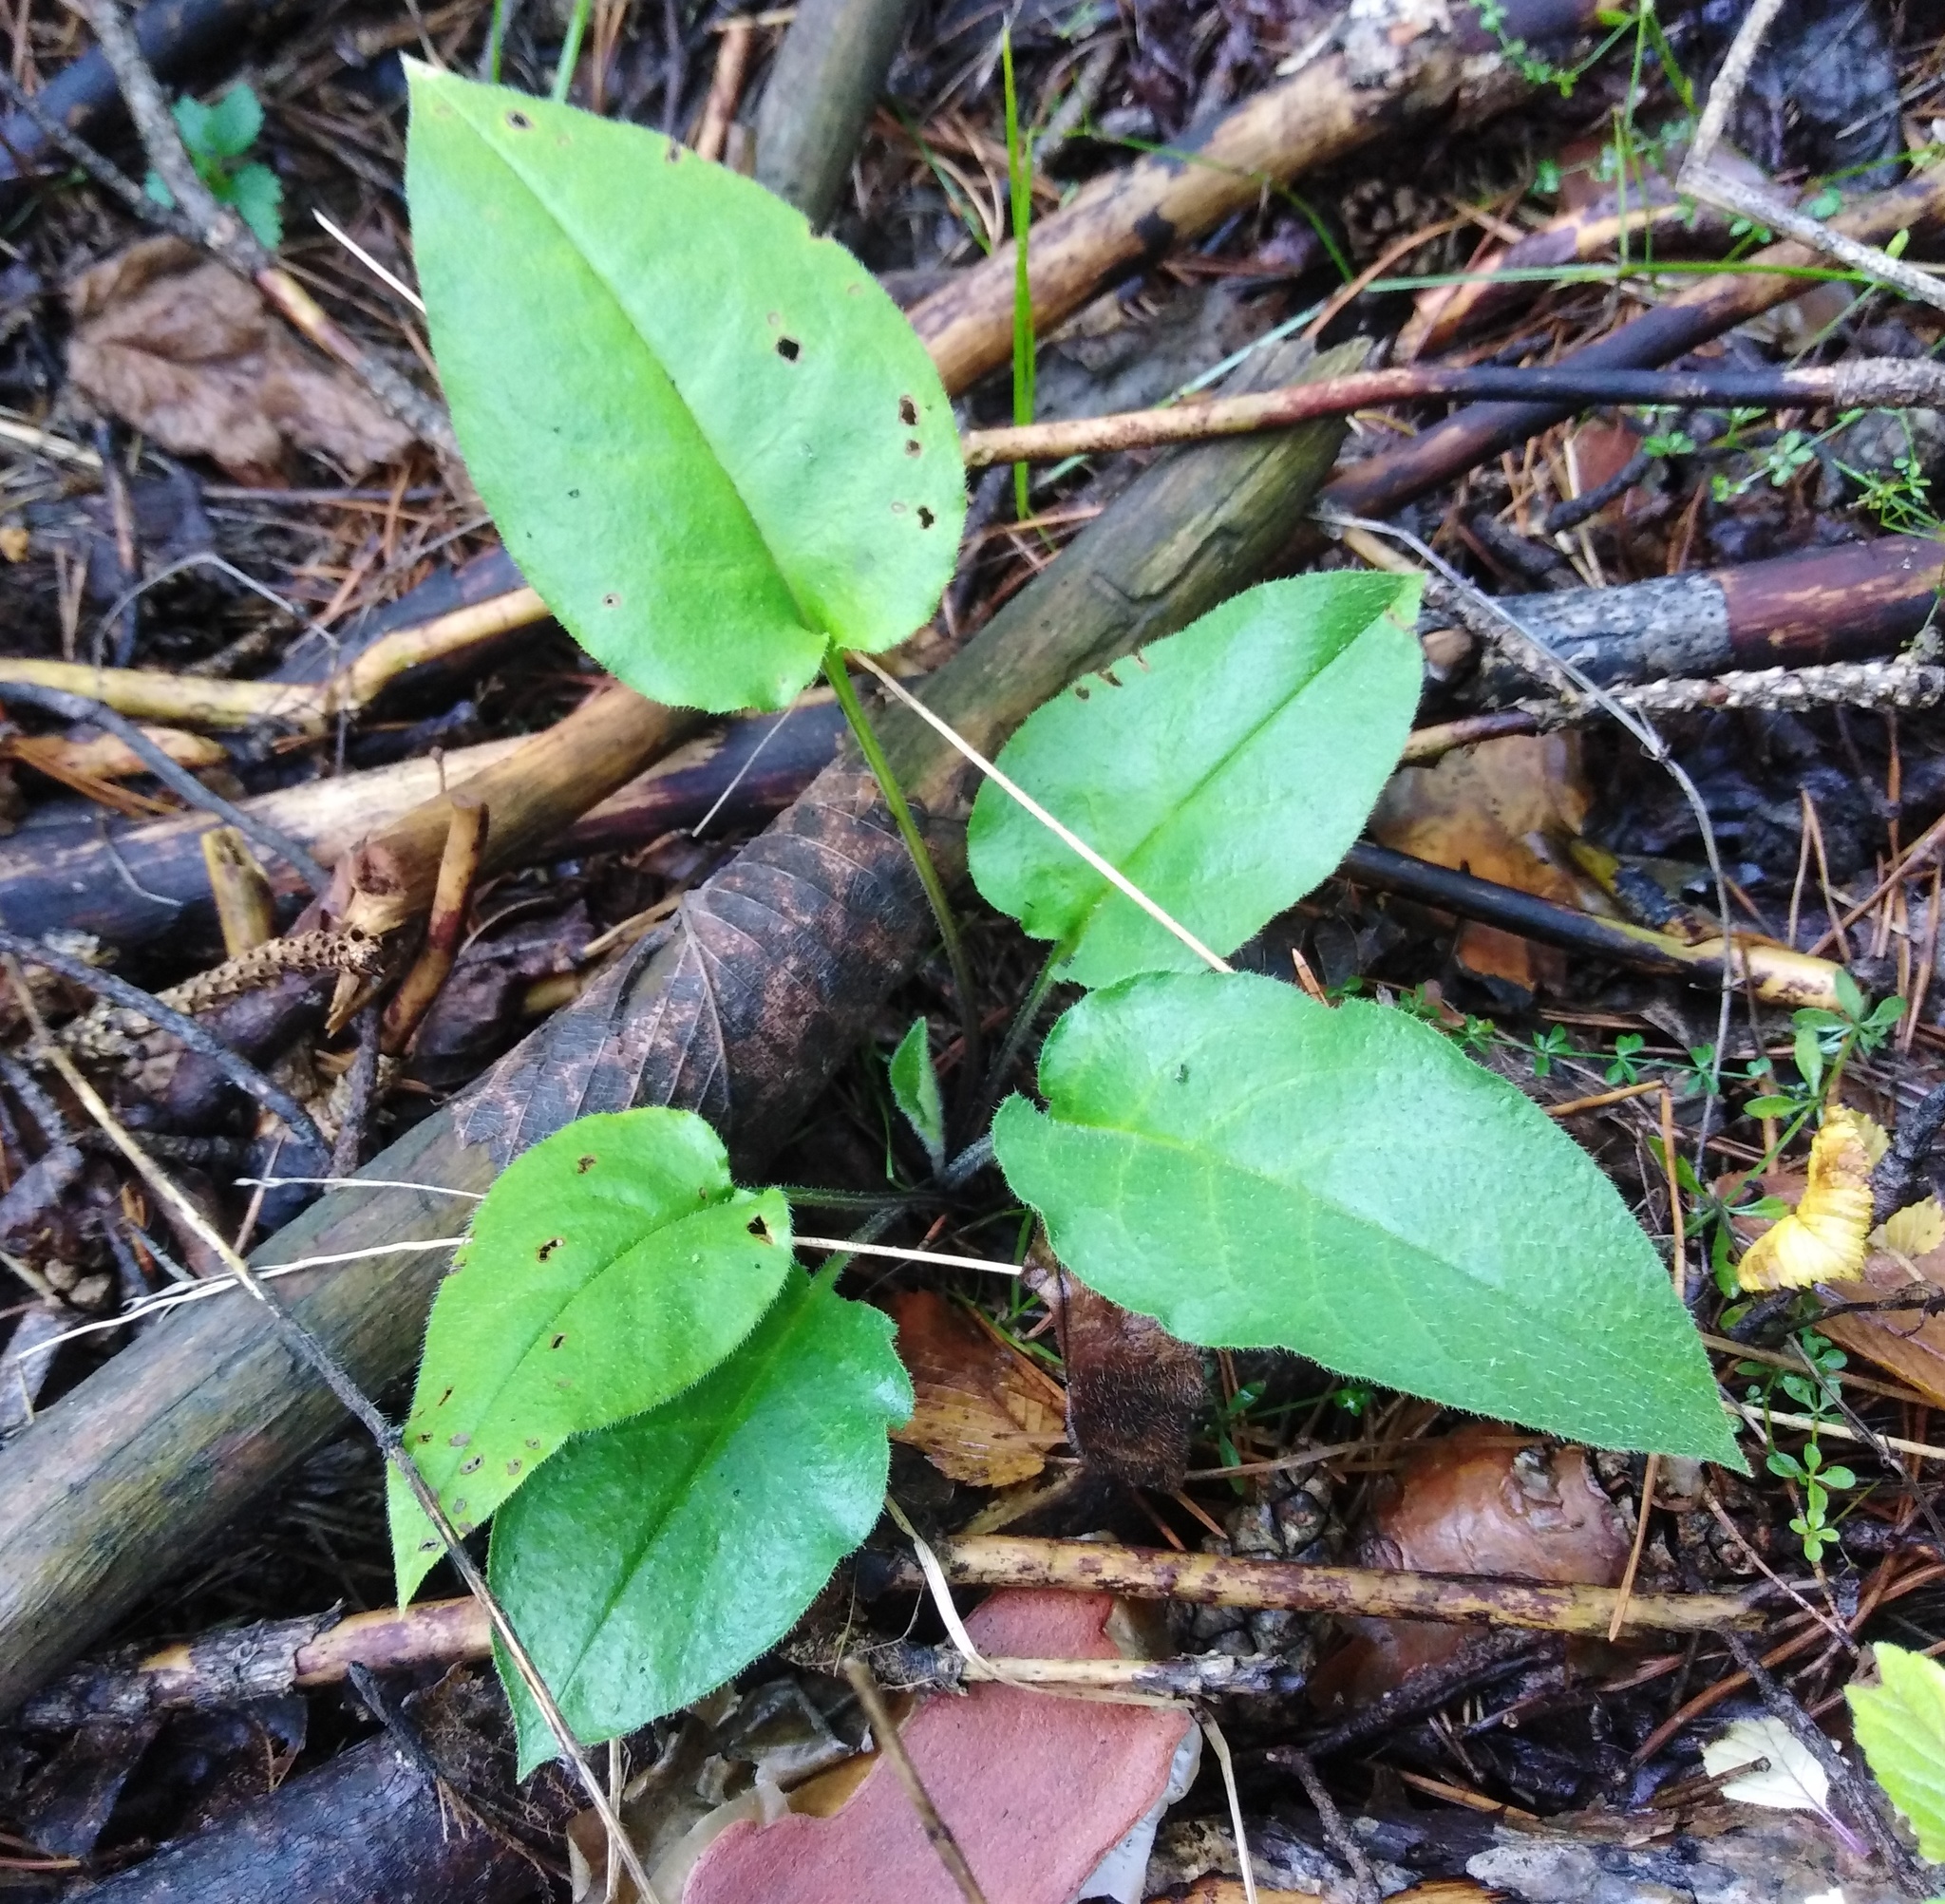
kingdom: Plantae
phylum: Tracheophyta
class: Magnoliopsida
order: Boraginales
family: Boraginaceae
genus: Pulmonaria
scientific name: Pulmonaria obscura
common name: Suffolk lungwort
